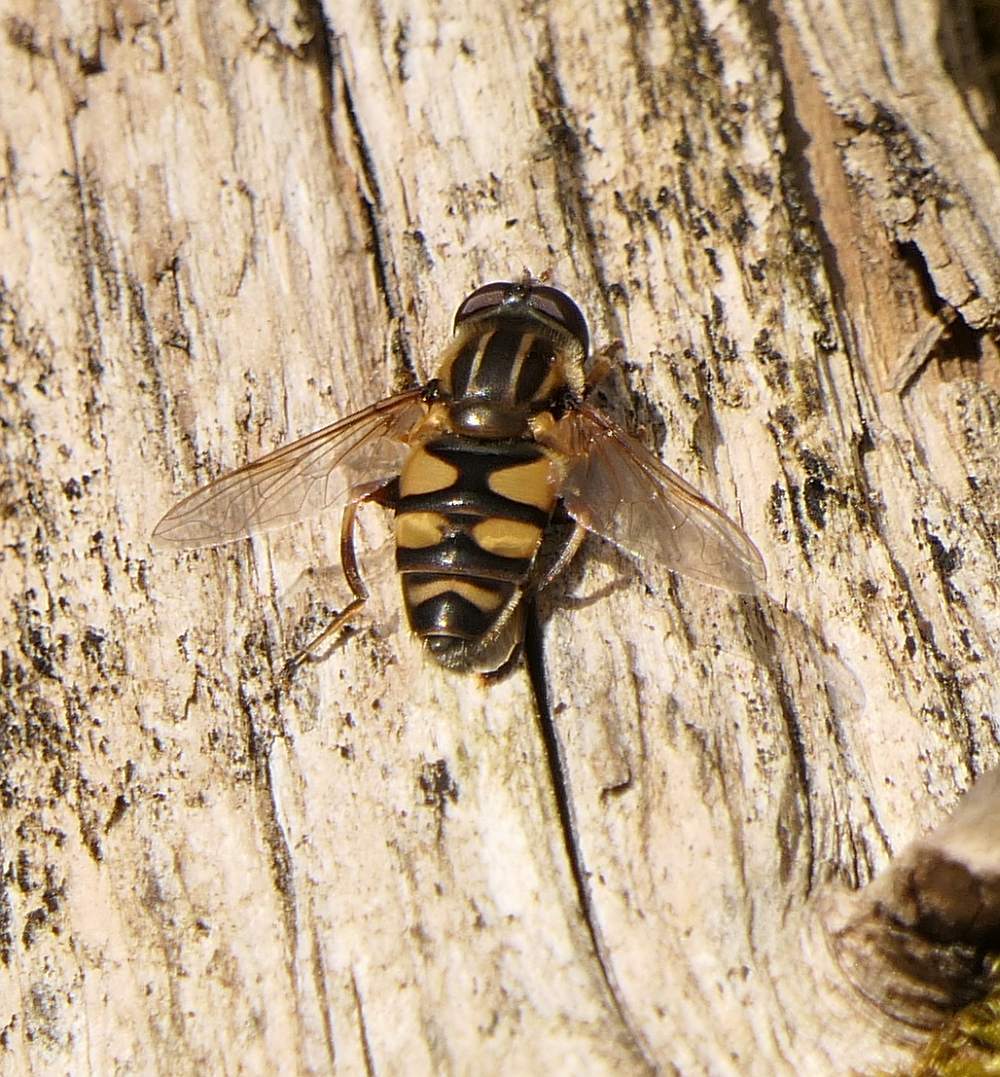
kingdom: Animalia
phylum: Arthropoda
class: Insecta
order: Diptera
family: Syrphidae
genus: Helophilus
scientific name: Helophilus fasciatus
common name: Narrow-headed marsh fly
